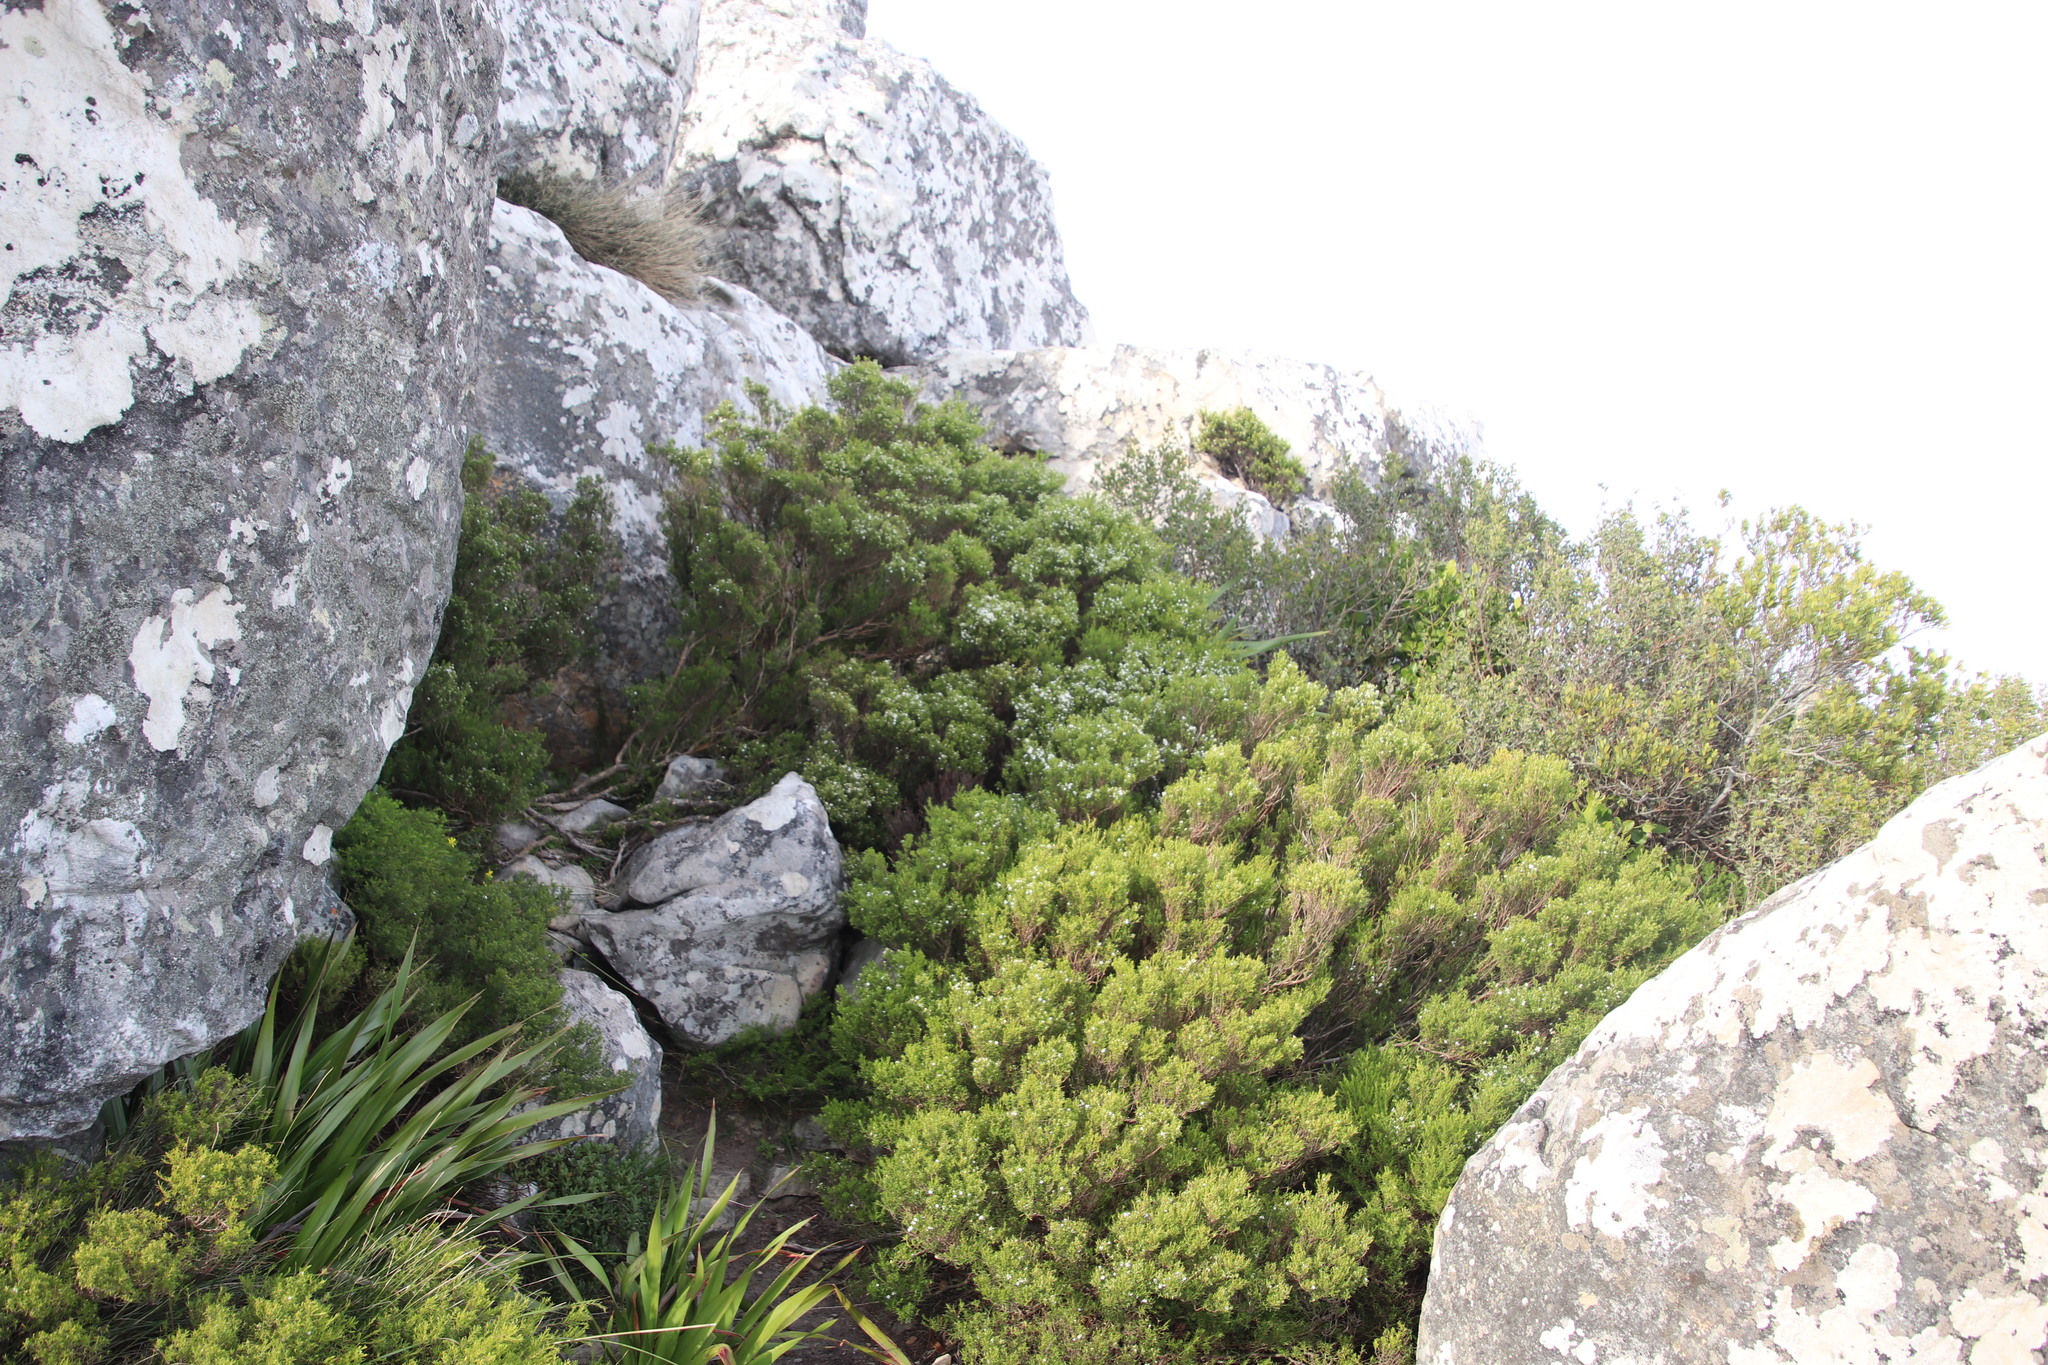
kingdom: Plantae
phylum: Tracheophyta
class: Magnoliopsida
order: Sapindales
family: Rutaceae
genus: Coleonema
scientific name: Coleonema album
